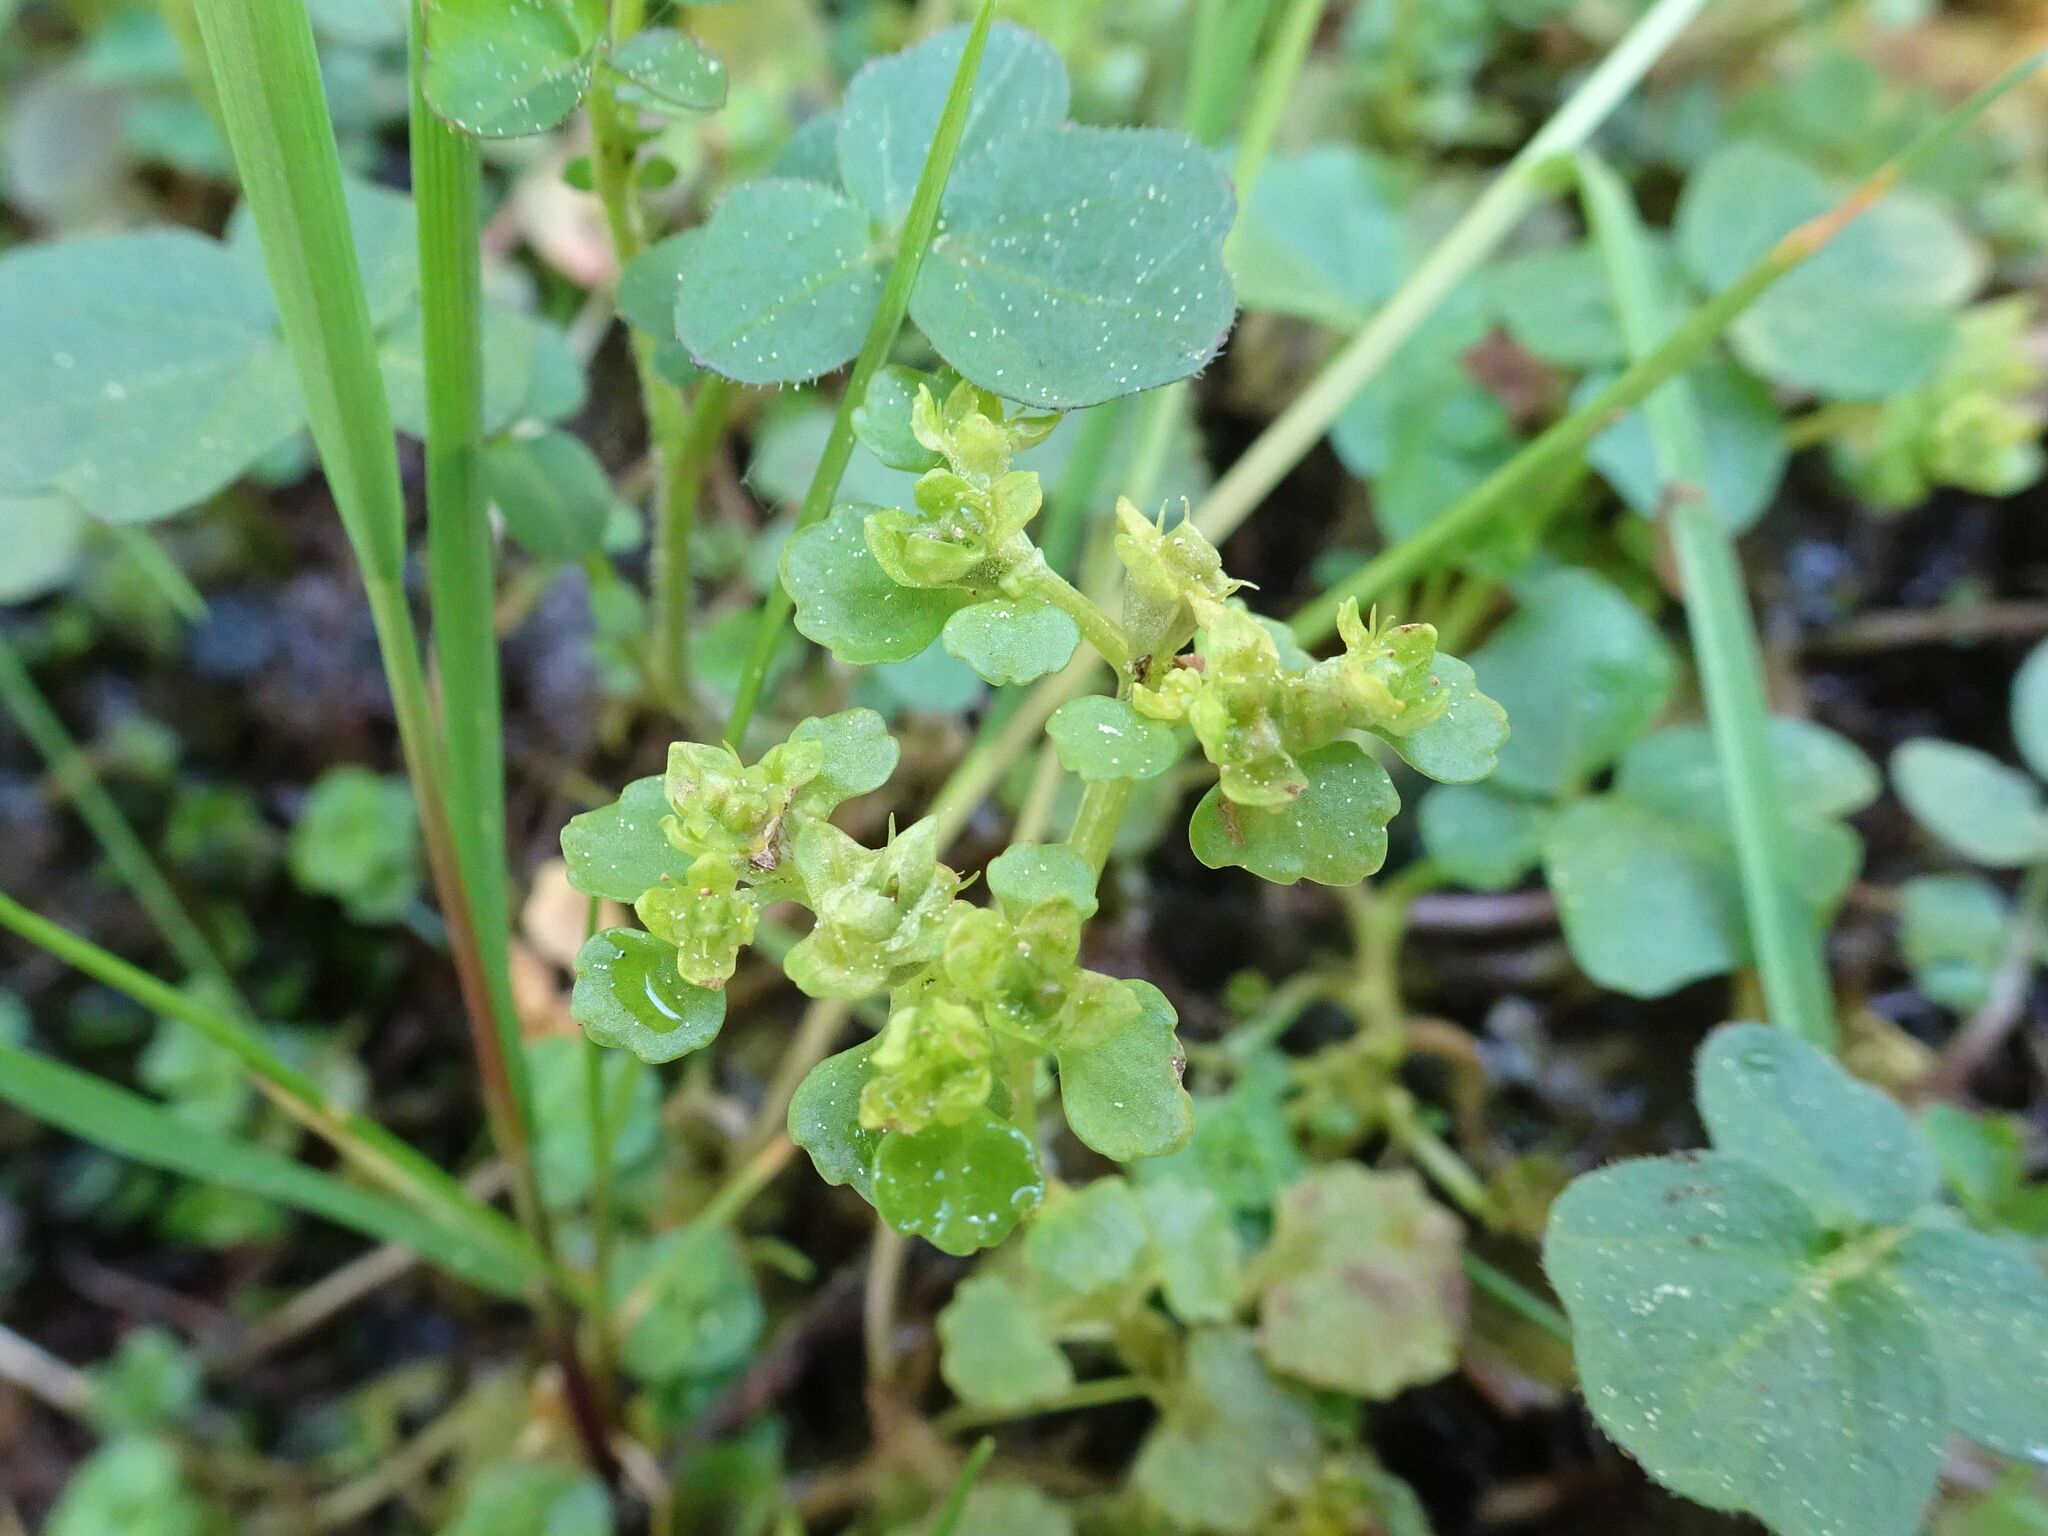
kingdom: Plantae
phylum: Tracheophyta
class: Magnoliopsida
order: Saxifragales
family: Saxifragaceae
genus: Chrysosplenium
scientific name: Chrysosplenium oppositifolium
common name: Opposite-leaved golden-saxifrage
